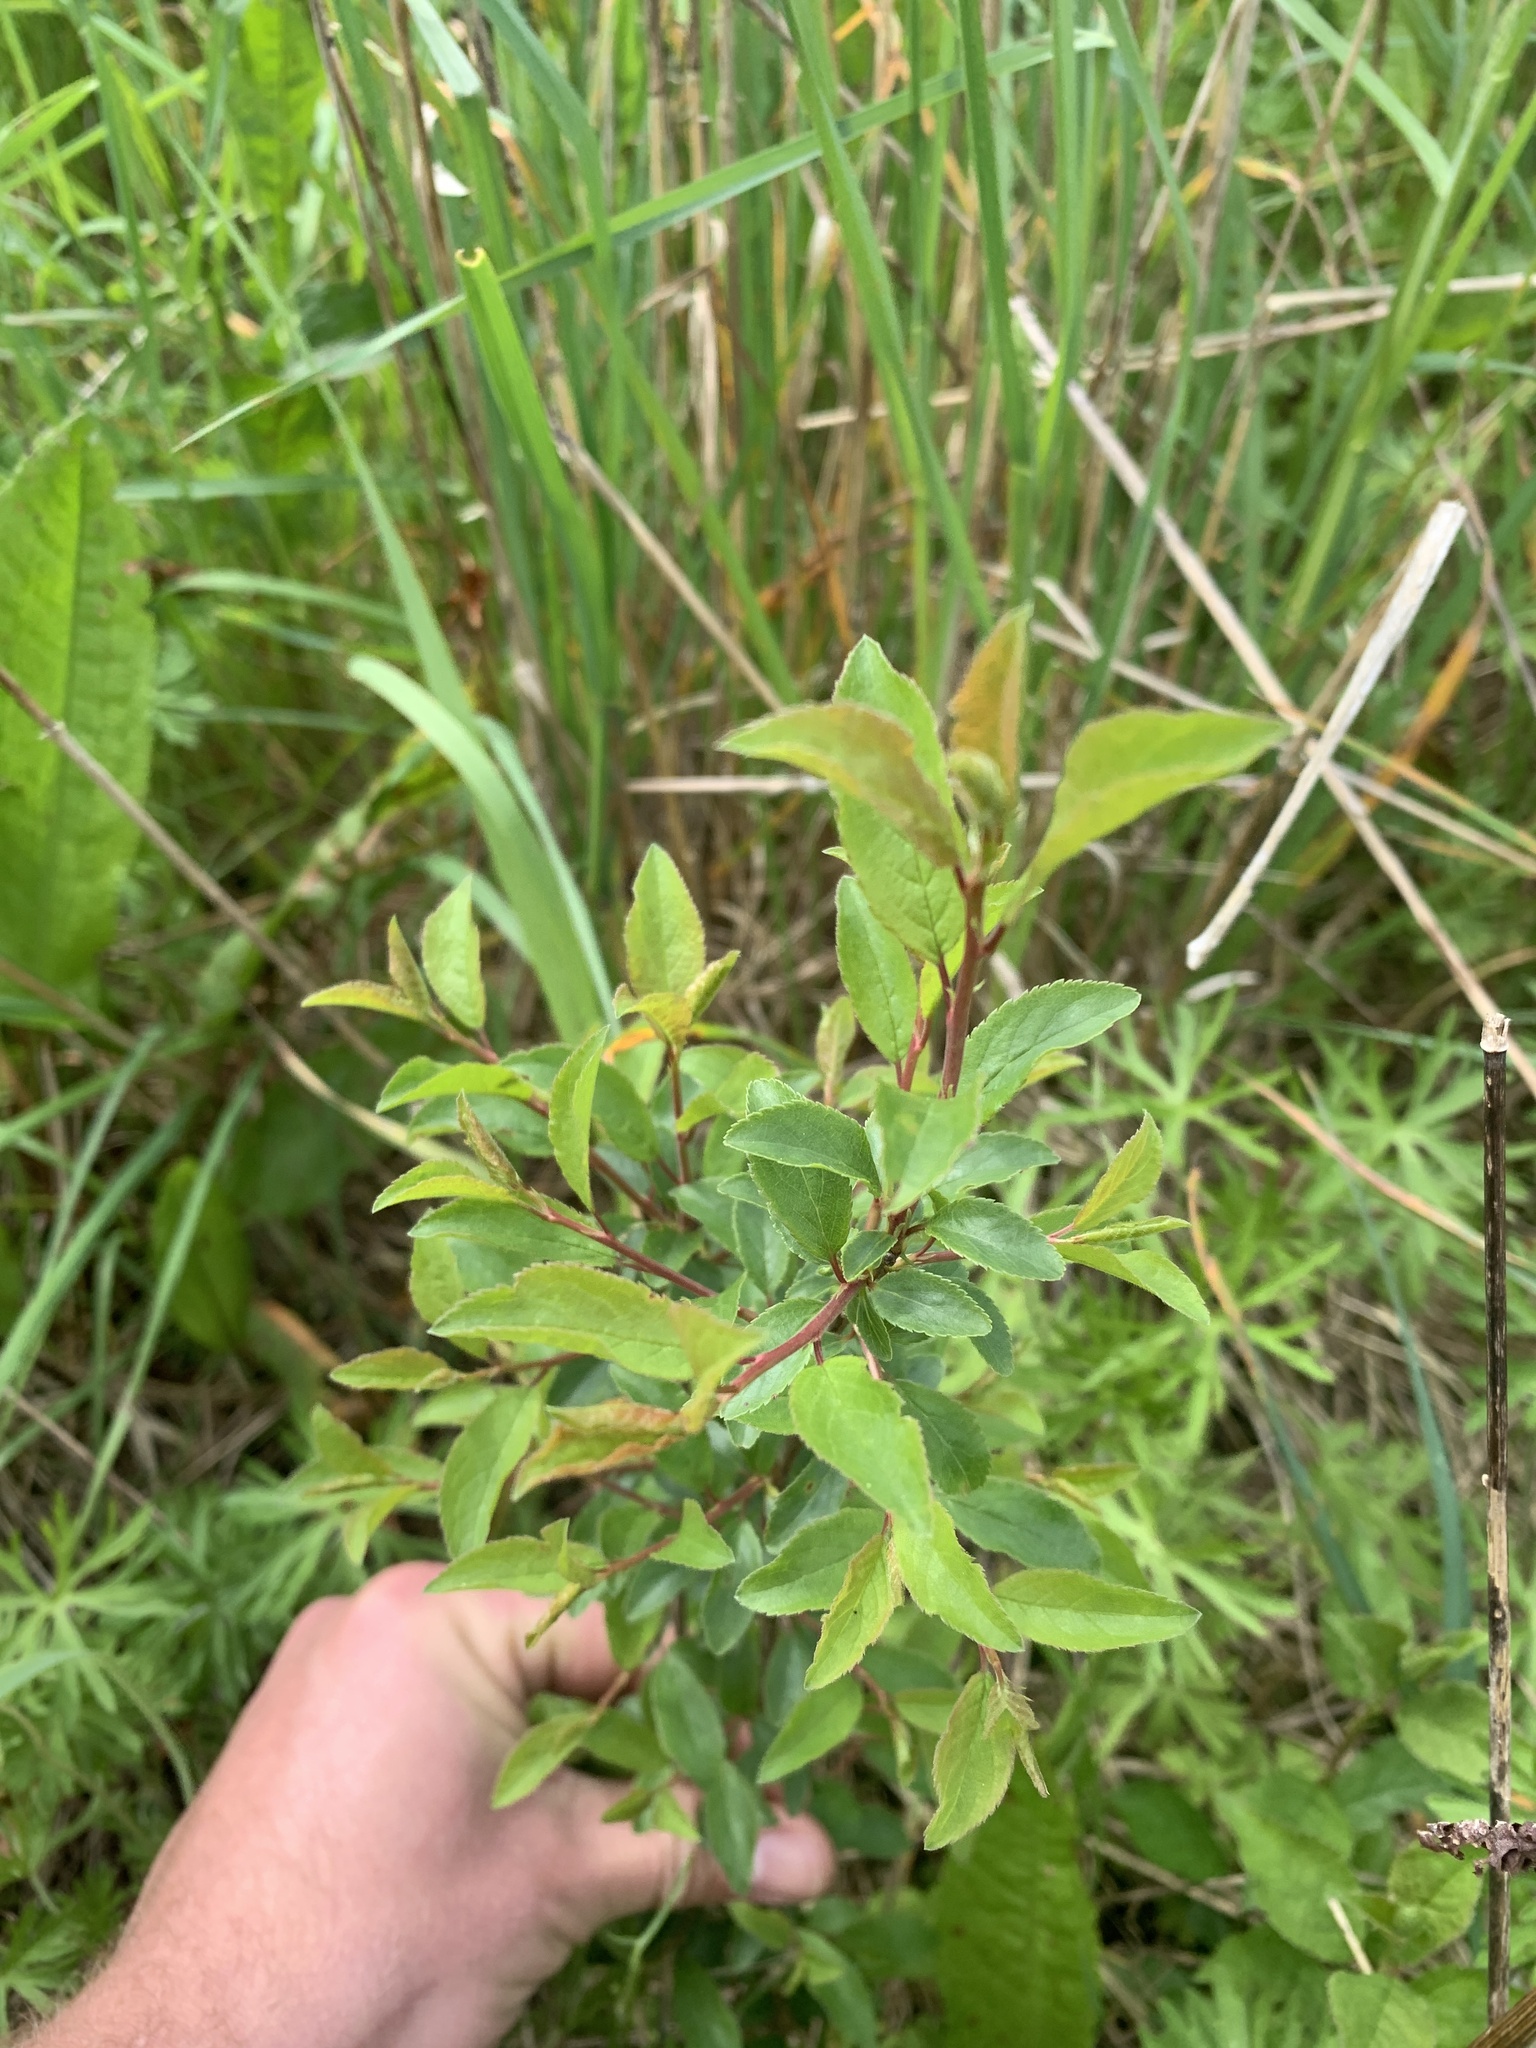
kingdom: Plantae
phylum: Tracheophyta
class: Magnoliopsida
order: Rosales
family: Rosaceae
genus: Prunus
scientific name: Prunus spinosa
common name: Blackthorn
